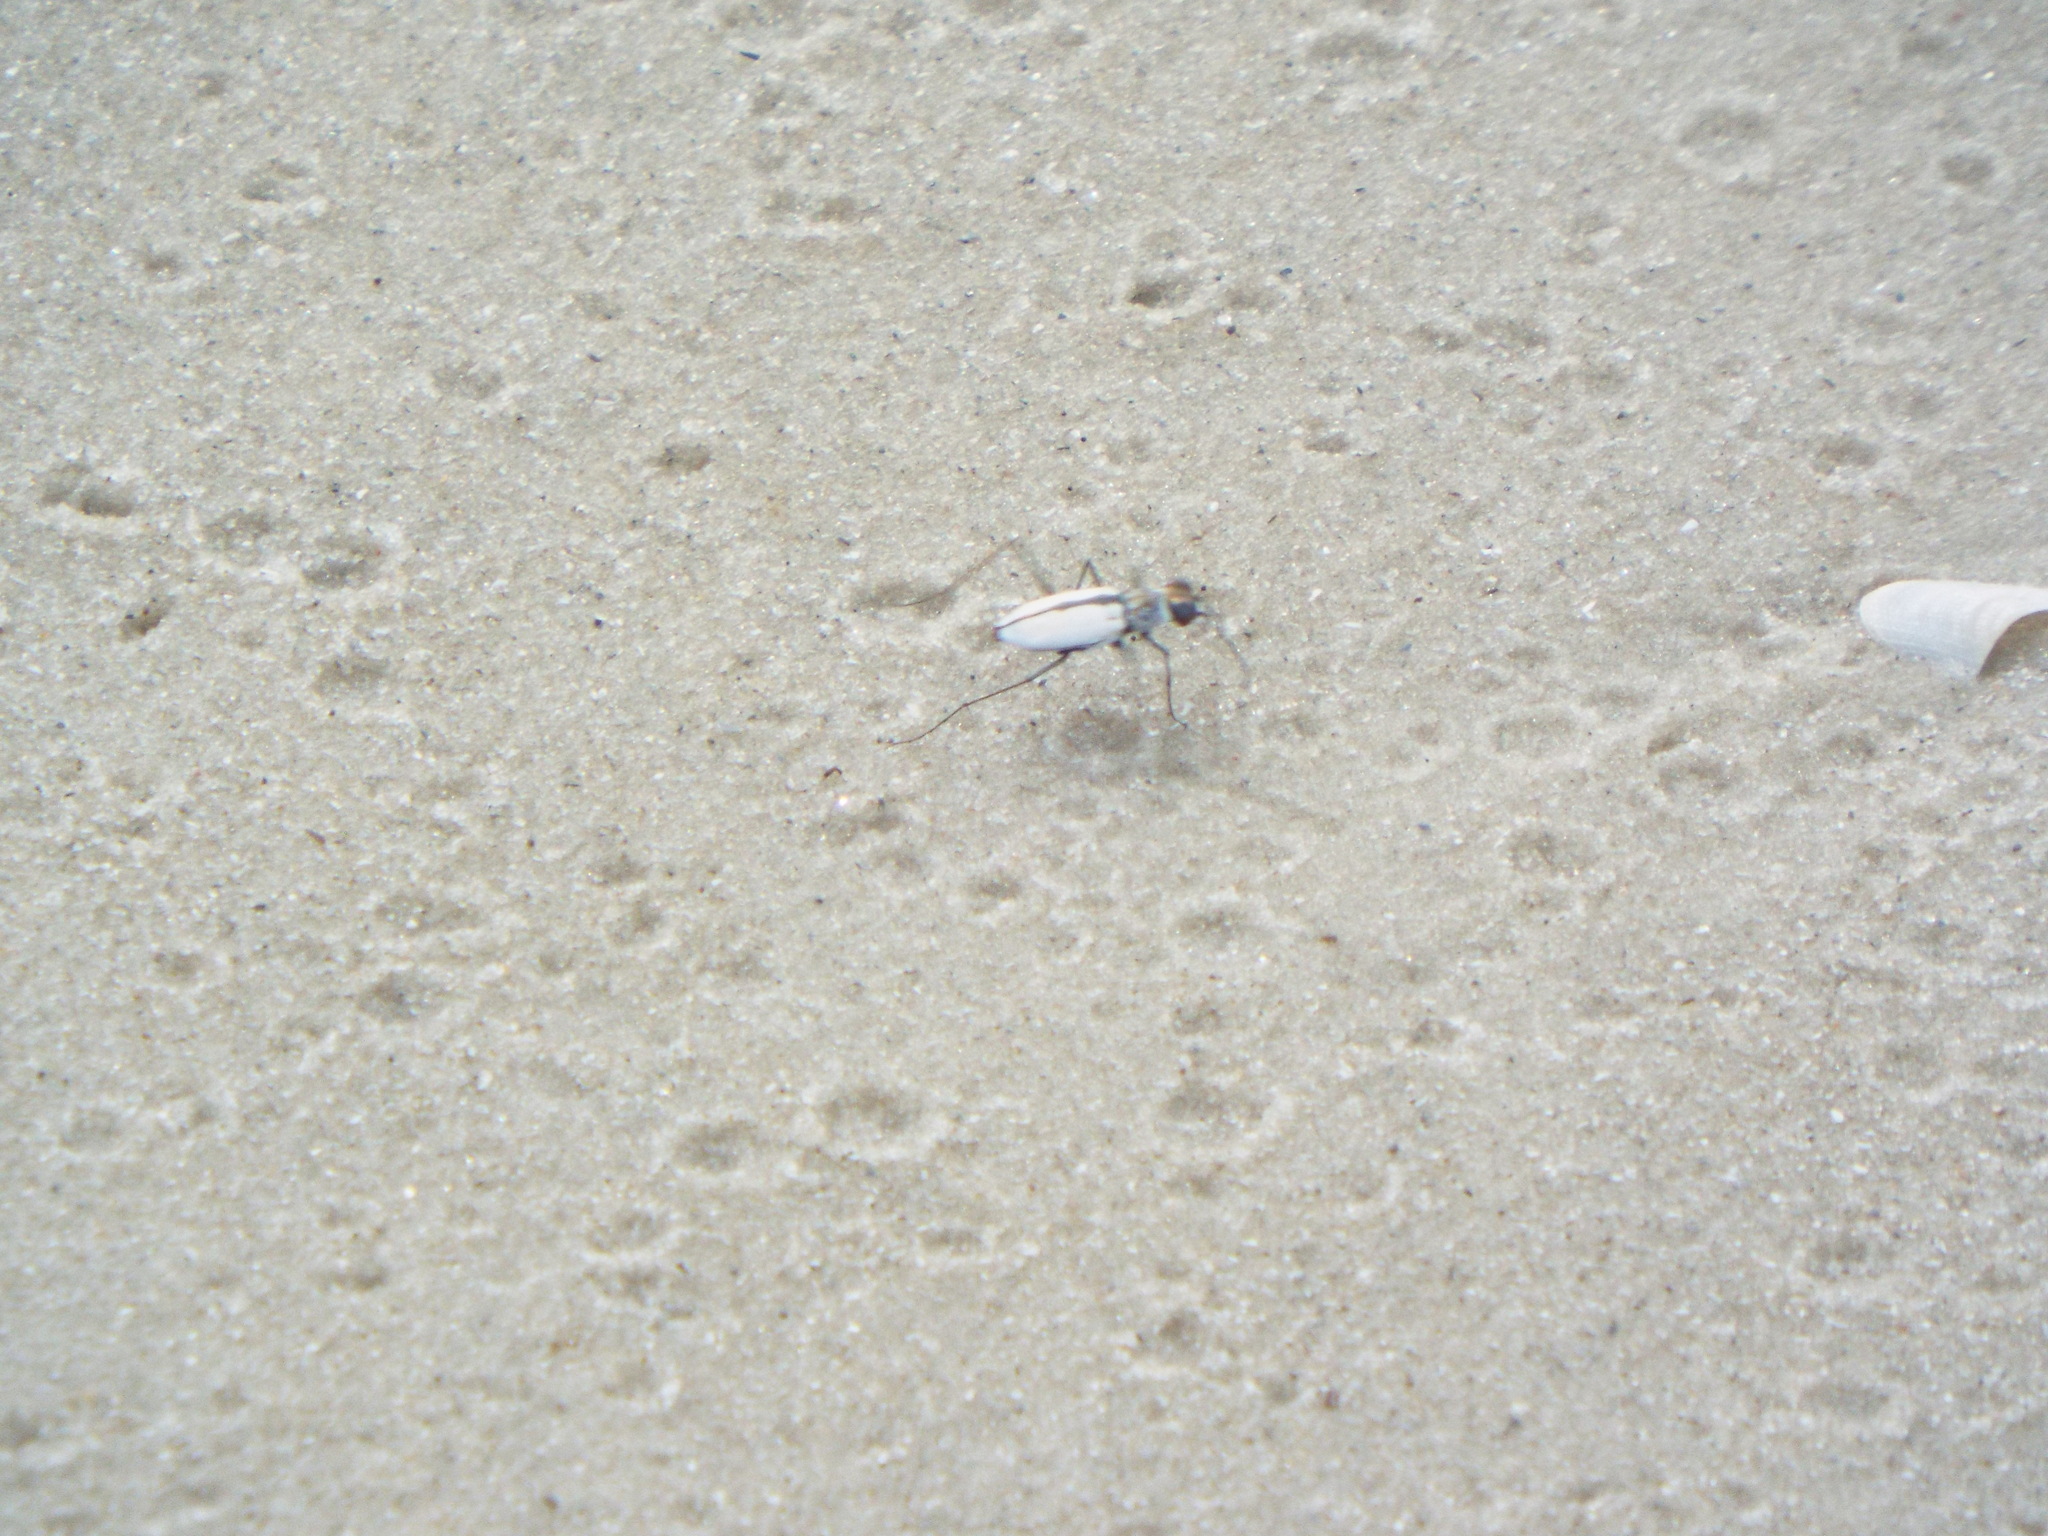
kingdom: Animalia
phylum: Arthropoda
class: Insecta
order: Coleoptera
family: Carabidae
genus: Habroscelimorpha
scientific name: Habroscelimorpha dorsalis
